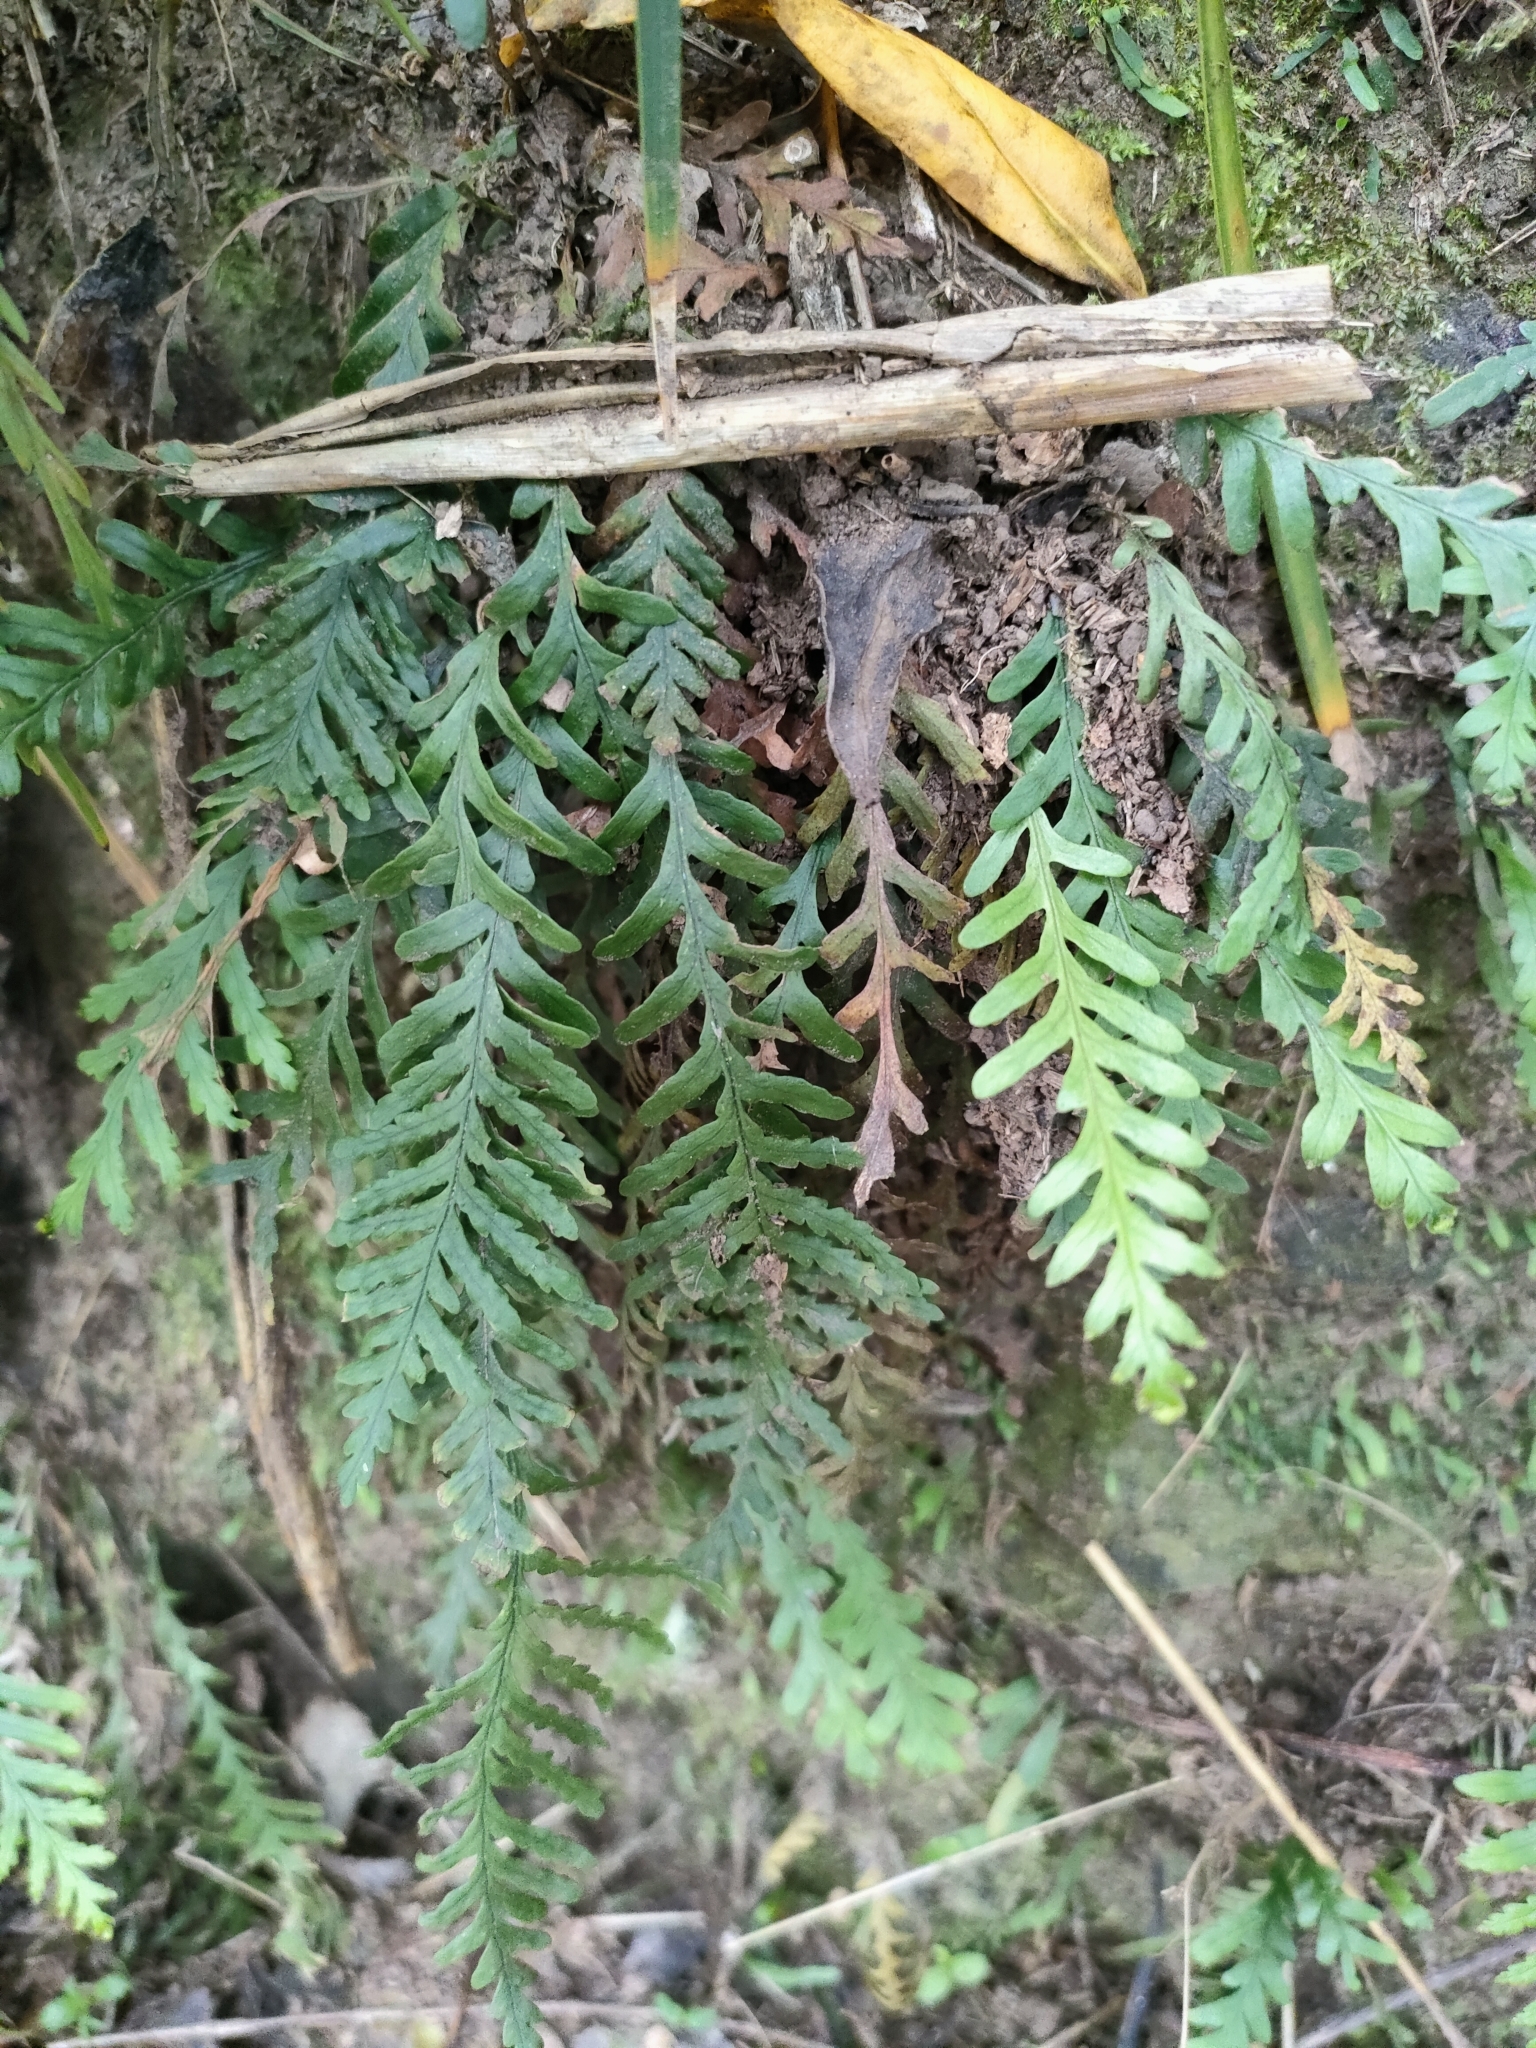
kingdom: Plantae
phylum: Tracheophyta
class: Polypodiopsida
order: Polypodiales
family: Polypodiaceae
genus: Notogrammitis
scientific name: Notogrammitis heterophylla
